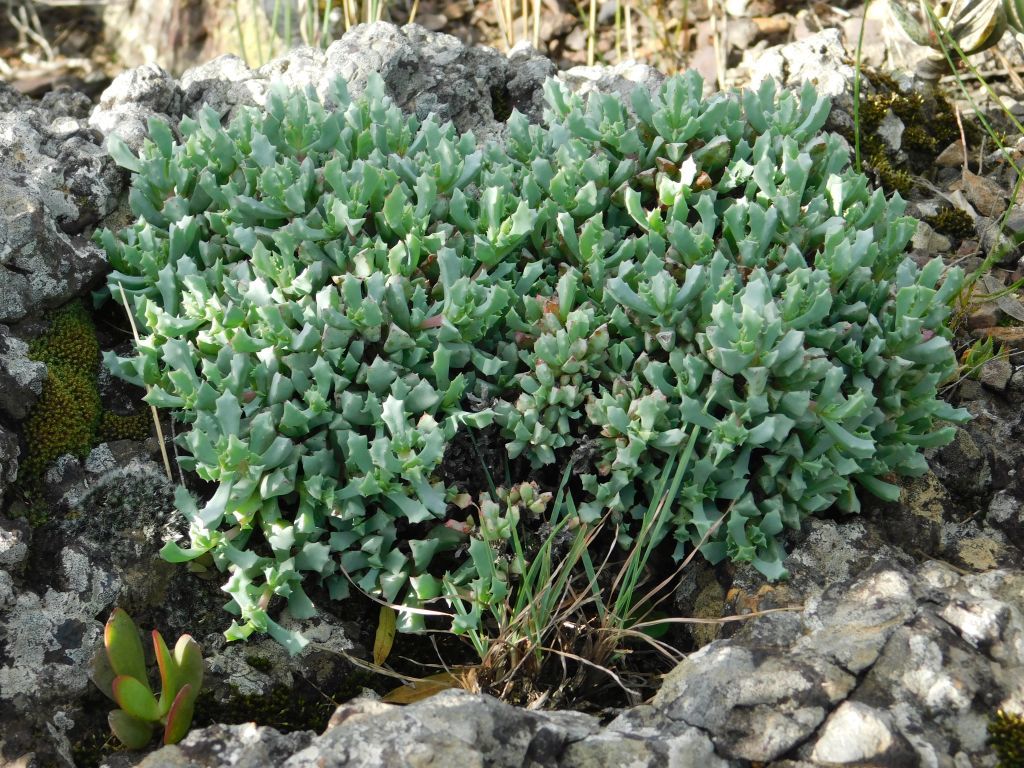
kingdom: Plantae
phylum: Tracheophyta
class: Magnoliopsida
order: Caryophyllales
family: Aizoaceae
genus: Oscularia
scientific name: Oscularia deltoides
